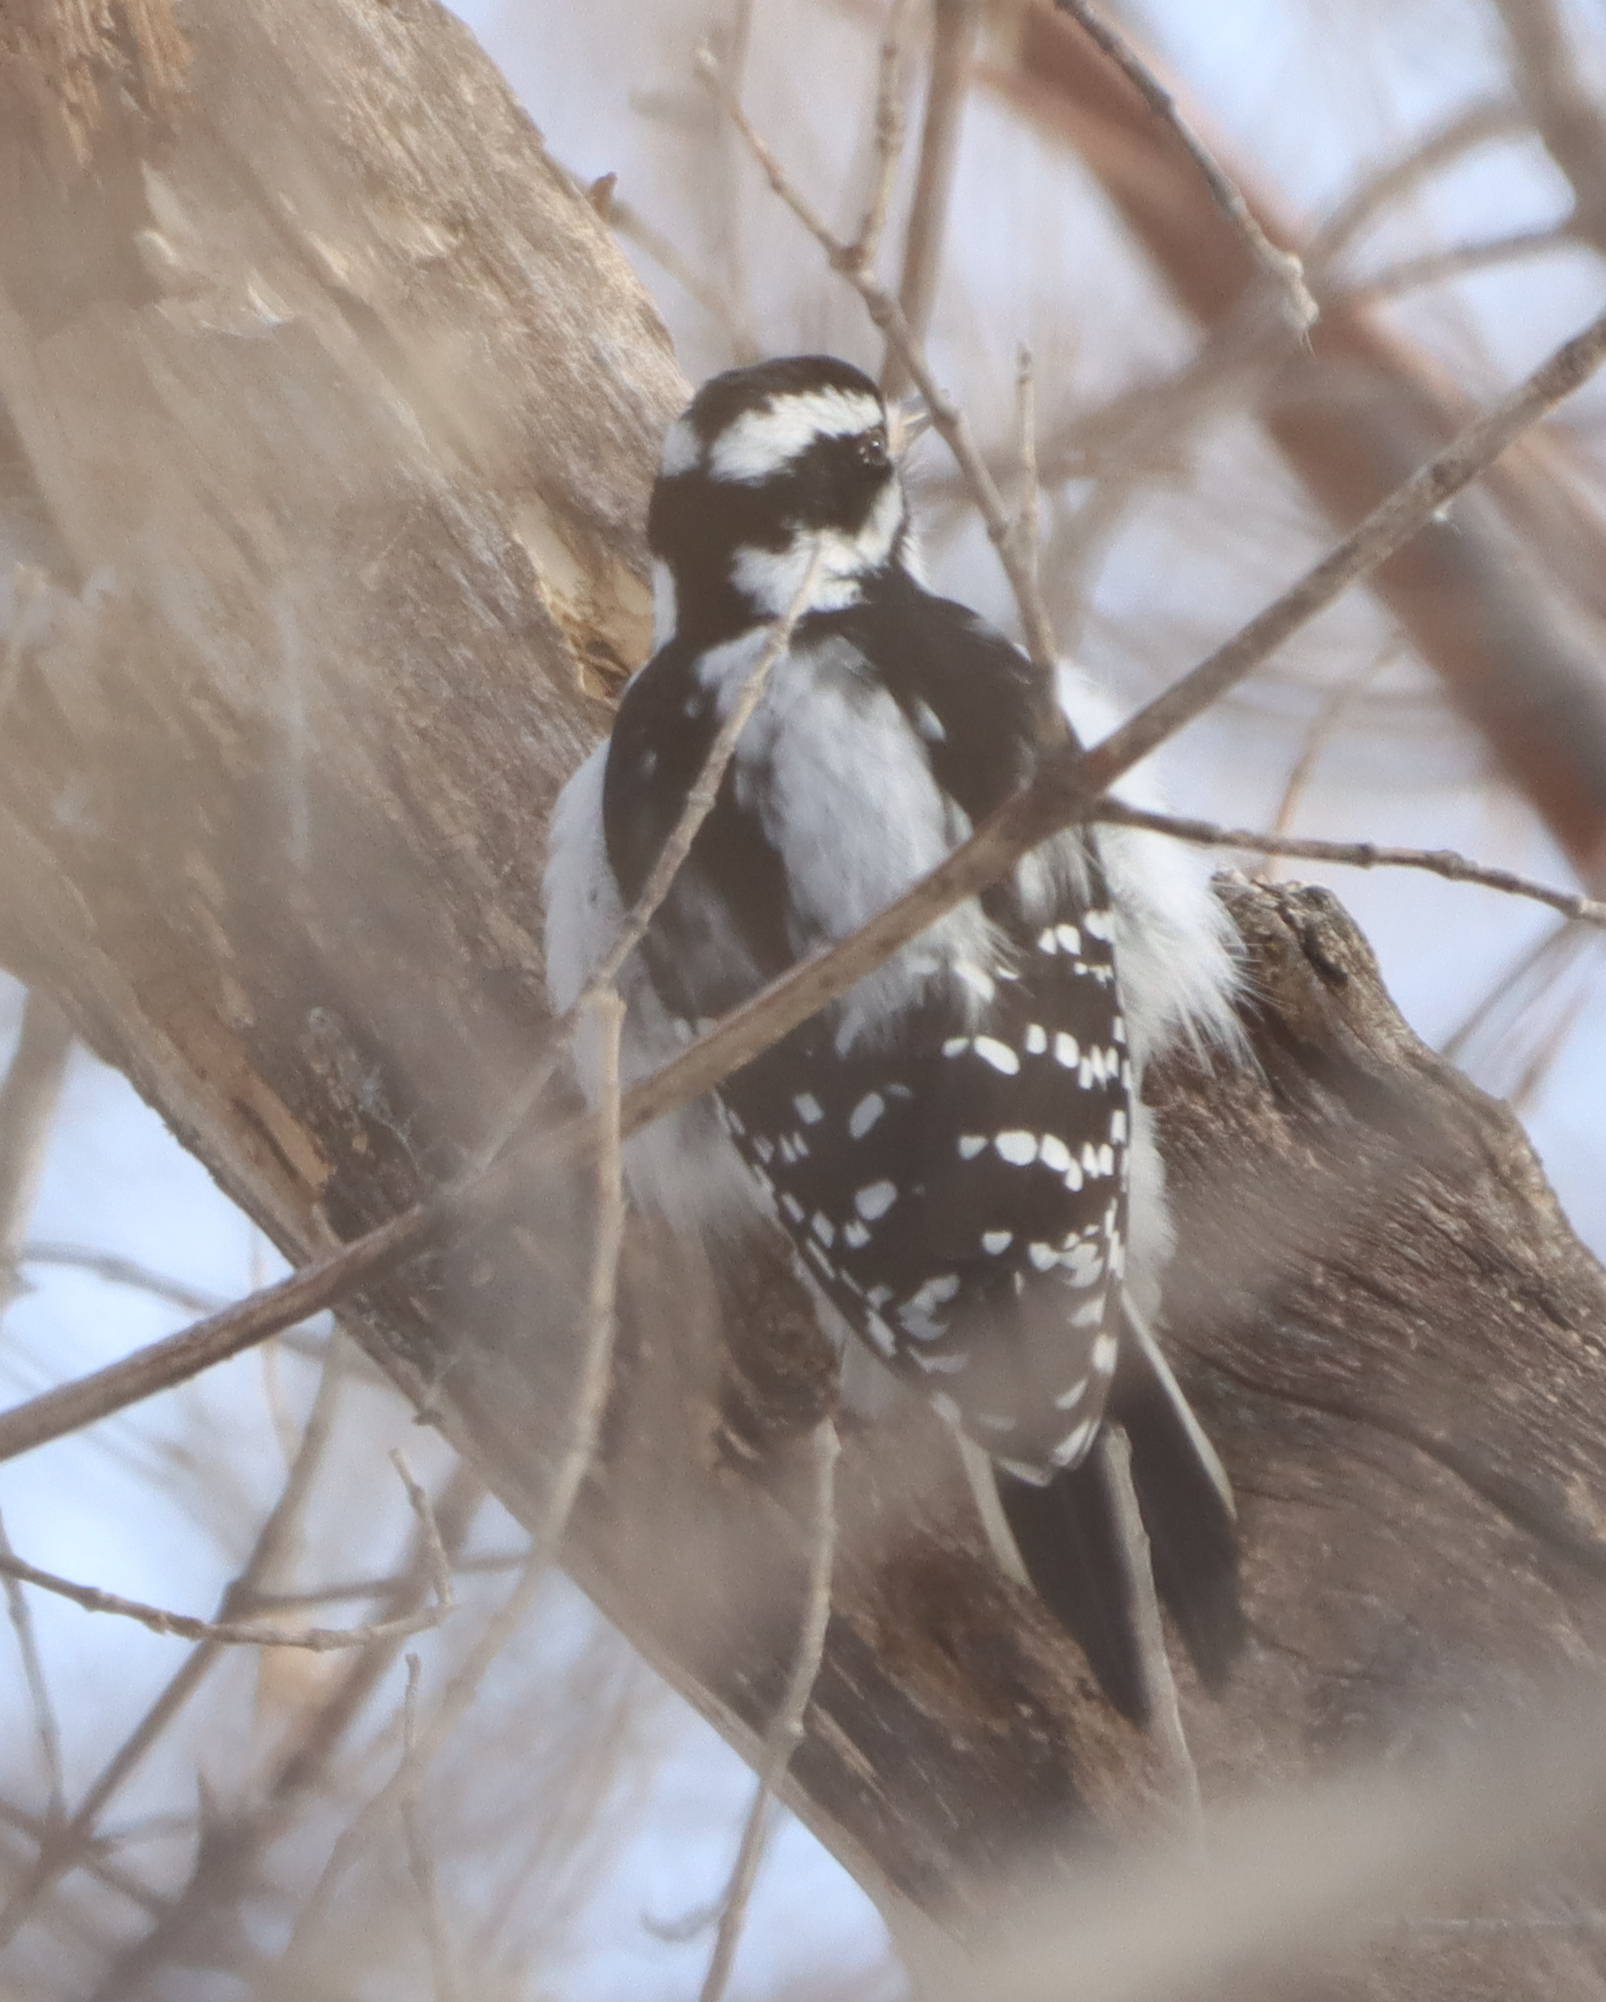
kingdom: Animalia
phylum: Chordata
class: Aves
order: Piciformes
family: Picidae
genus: Leuconotopicus
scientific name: Leuconotopicus villosus
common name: Hairy woodpecker
